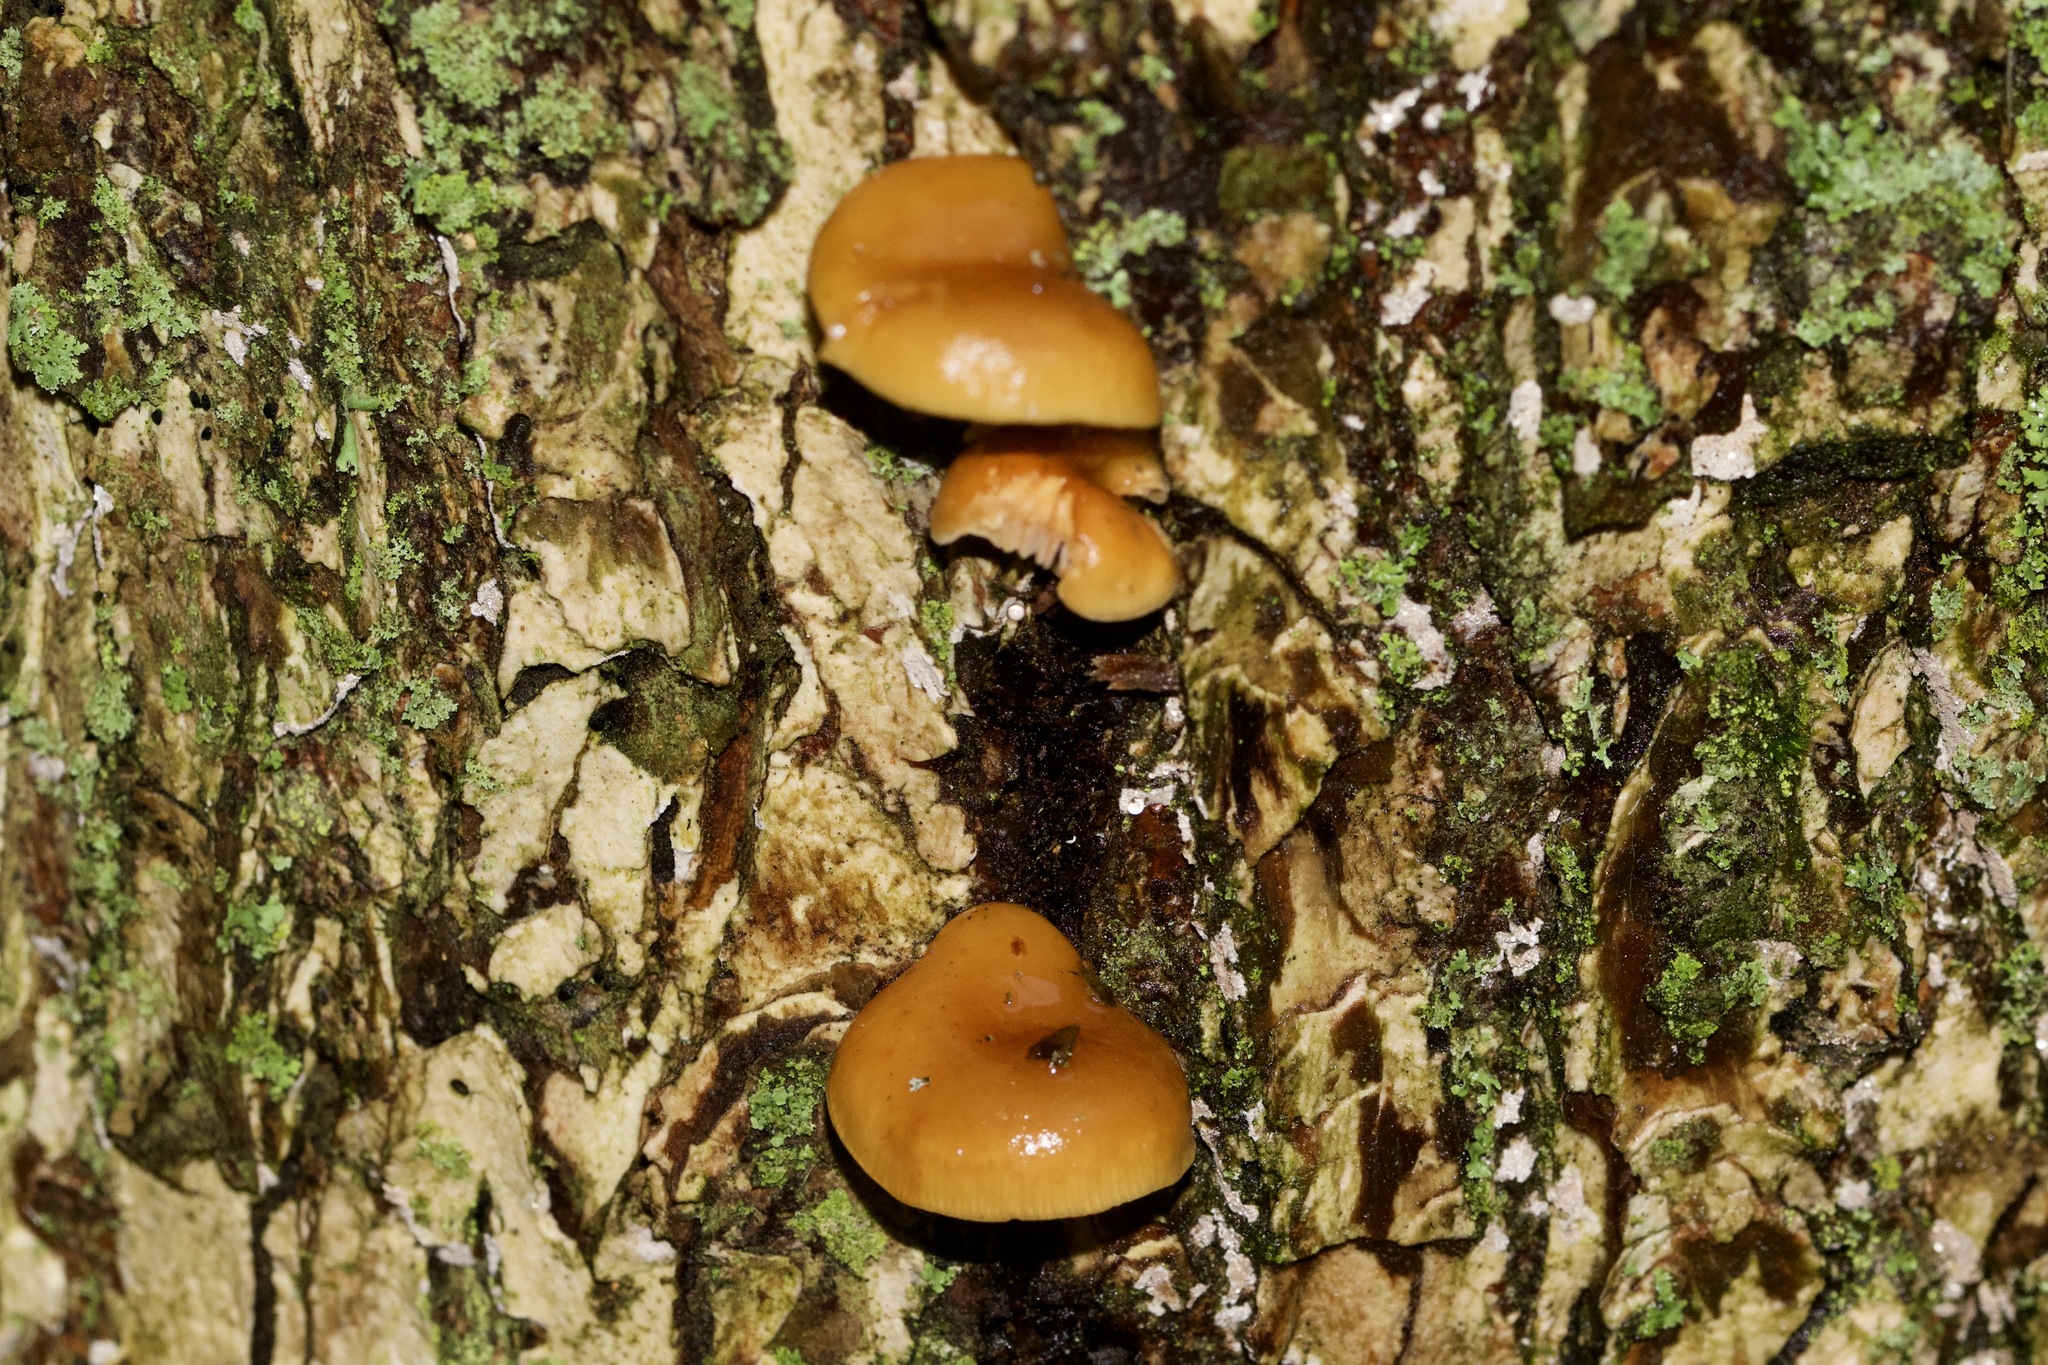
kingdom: Fungi
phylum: Basidiomycota
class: Agaricomycetes
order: Agaricales
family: Physalacriaceae
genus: Flammulina
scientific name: Flammulina velutipes
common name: Velvet shank
